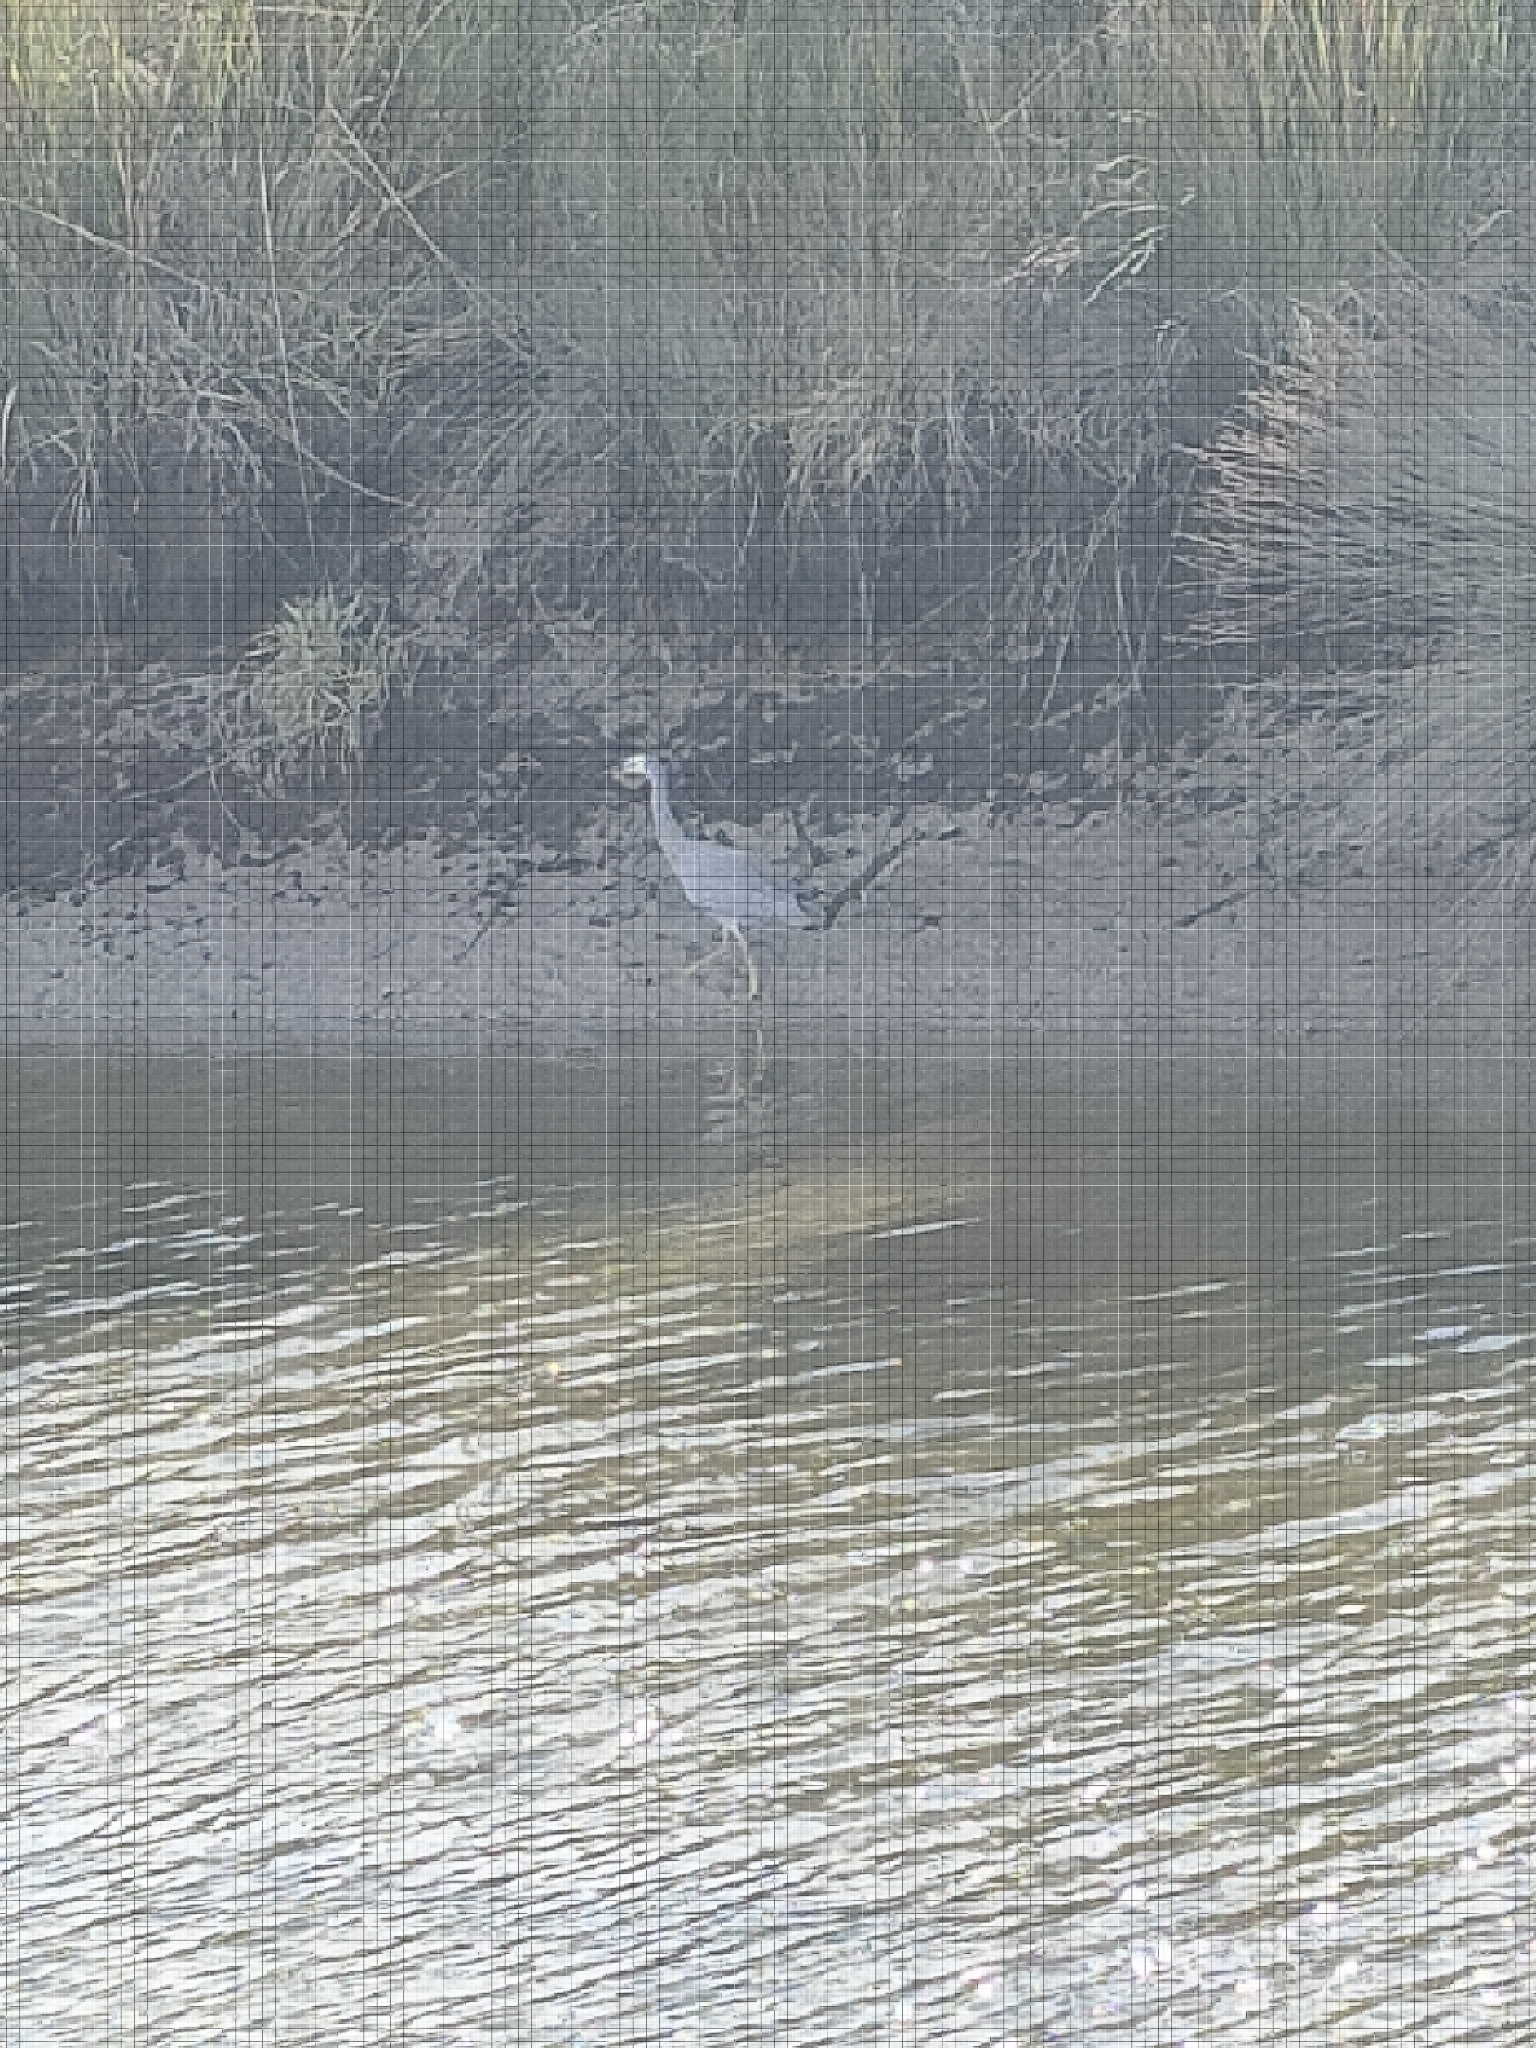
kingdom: Animalia
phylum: Chordata
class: Aves
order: Pelecaniformes
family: Ardeidae
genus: Egretta
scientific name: Egretta novaehollandiae
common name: White-faced heron
